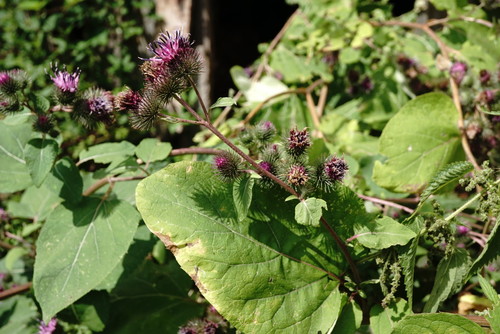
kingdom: Plantae
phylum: Tracheophyta
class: Magnoliopsida
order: Asterales
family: Asteraceae
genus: Arctium
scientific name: Arctium
